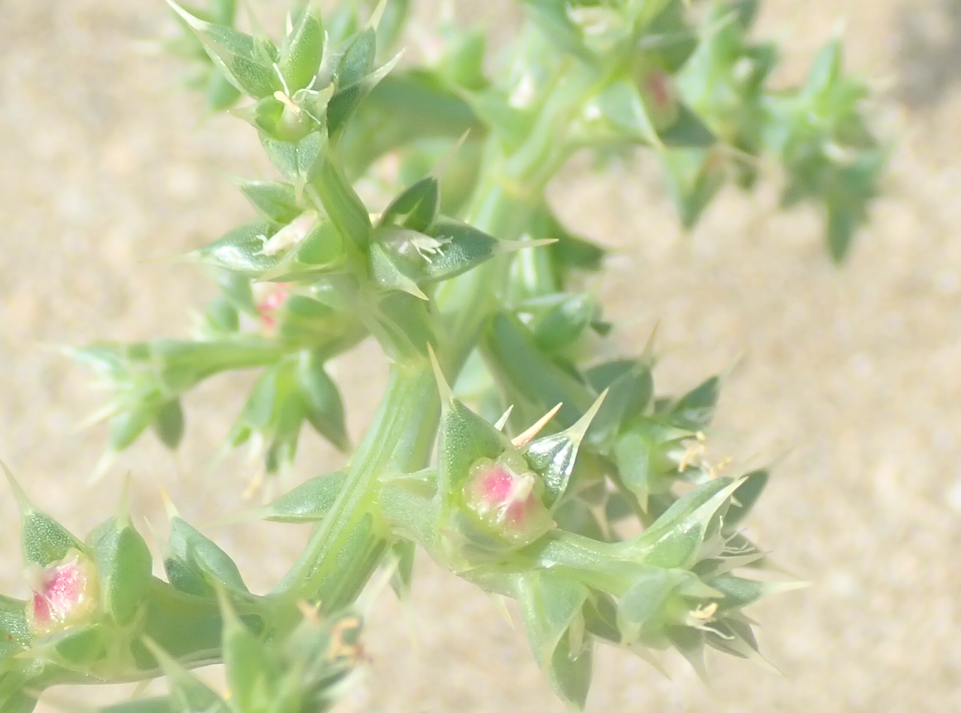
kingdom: Plantae
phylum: Tracheophyta
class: Magnoliopsida
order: Caryophyllales
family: Amaranthaceae
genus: Salsola
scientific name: Salsola kali
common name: Saltwort
